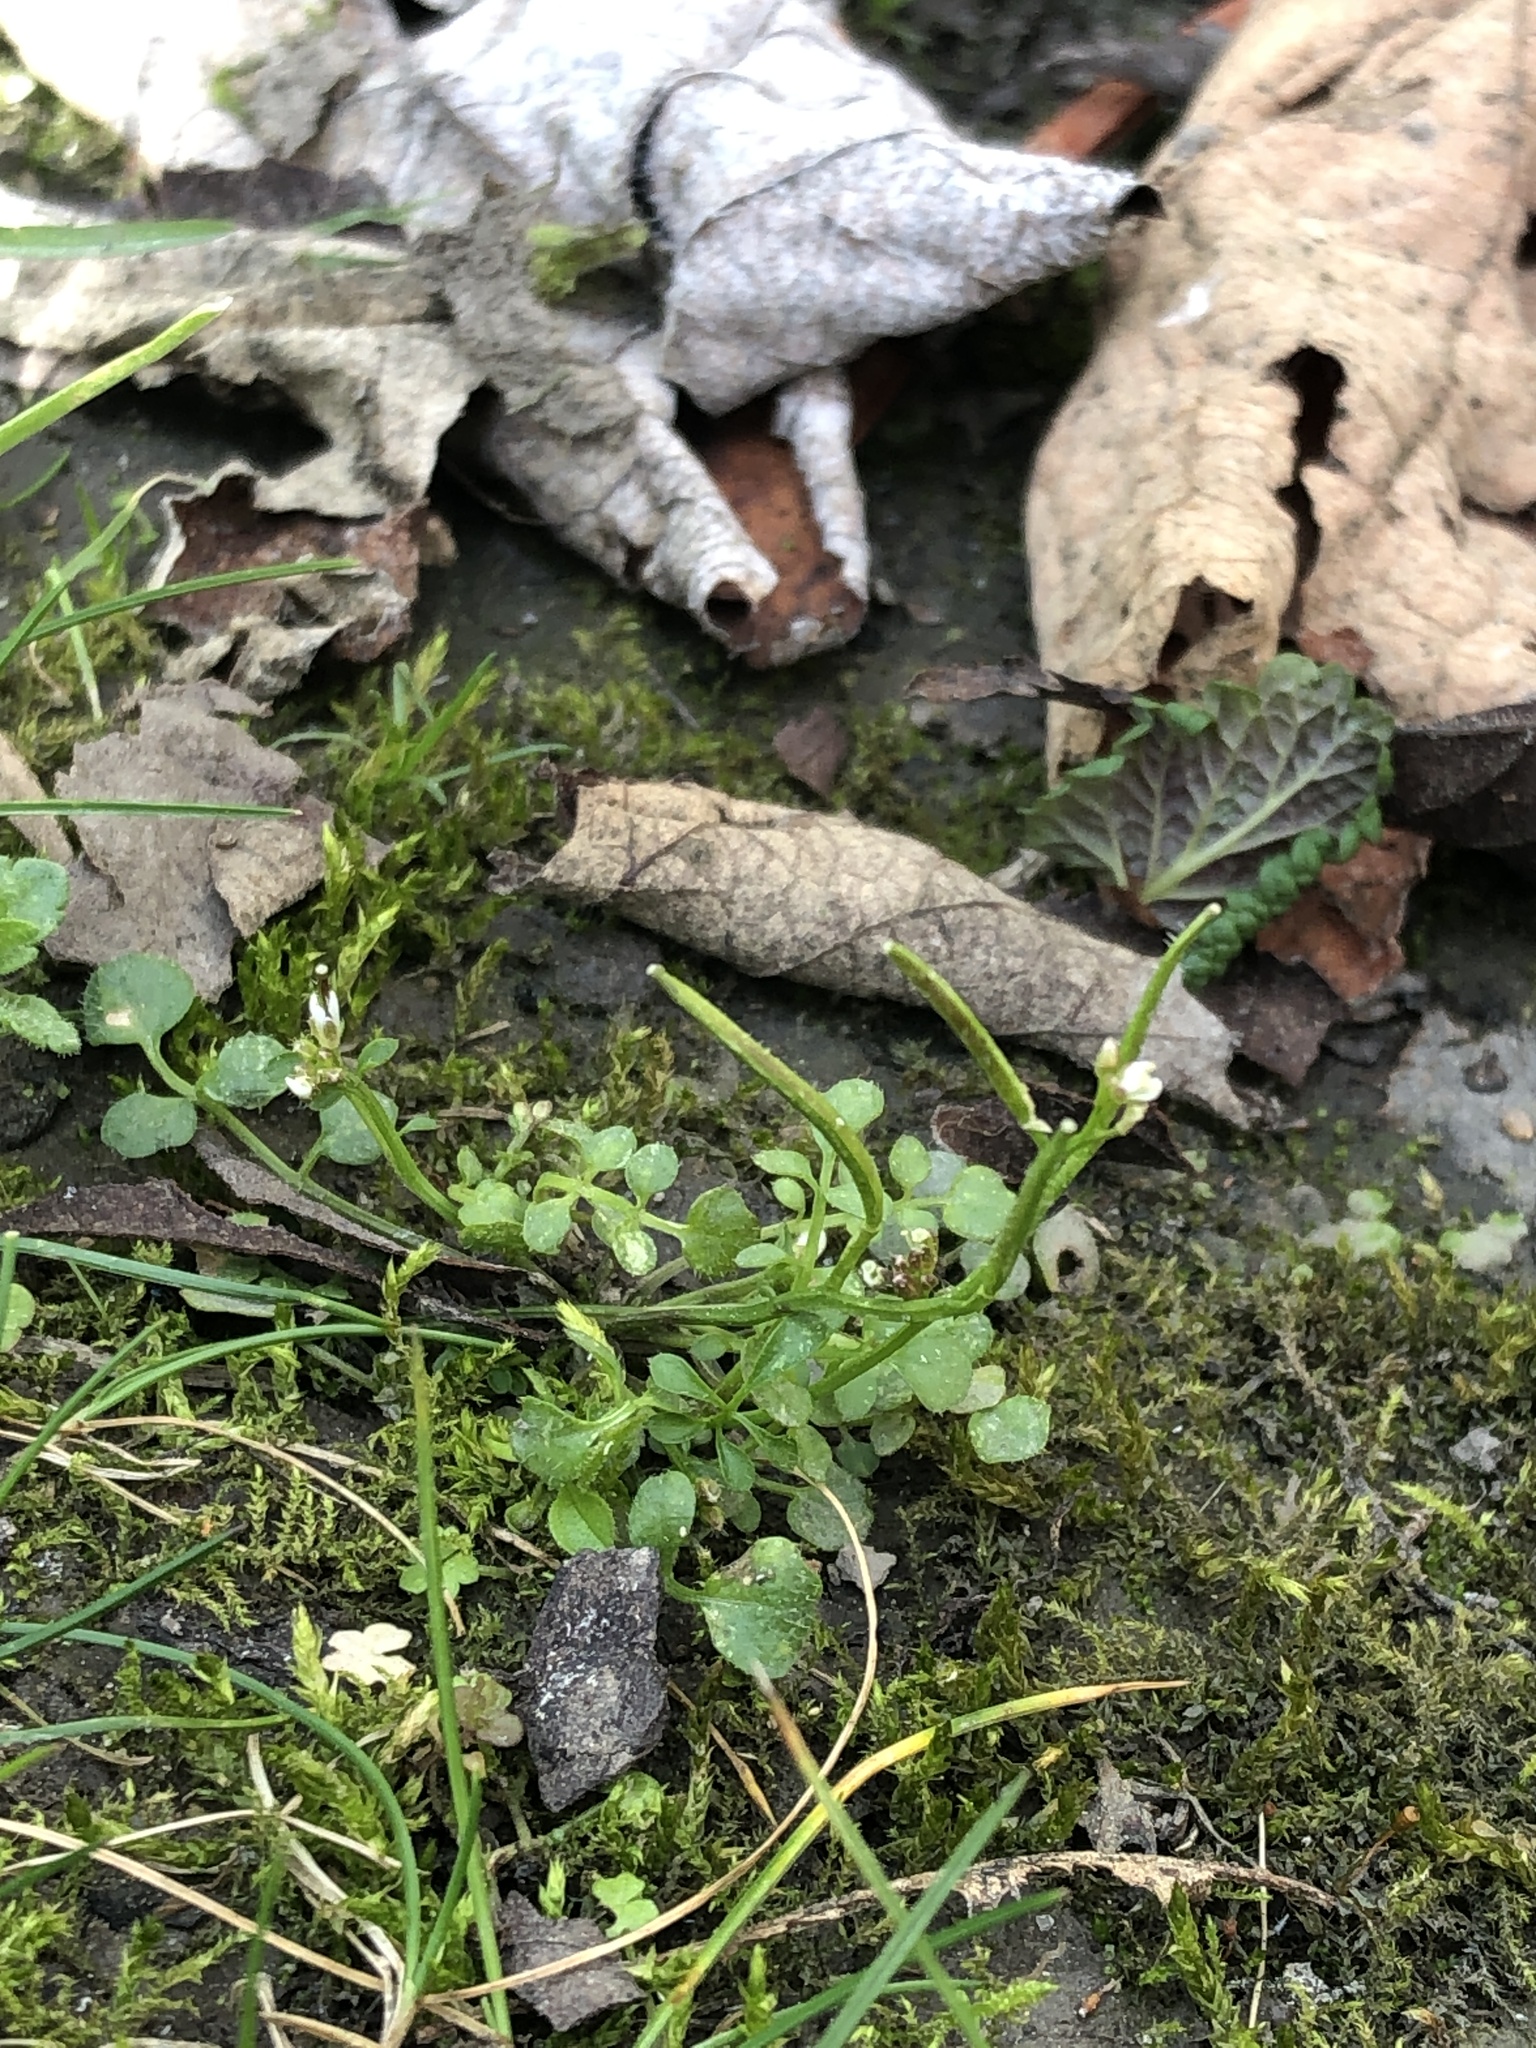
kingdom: Plantae
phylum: Tracheophyta
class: Magnoliopsida
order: Brassicales
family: Brassicaceae
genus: Cardamine
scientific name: Cardamine hirsuta
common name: Hairy bittercress
